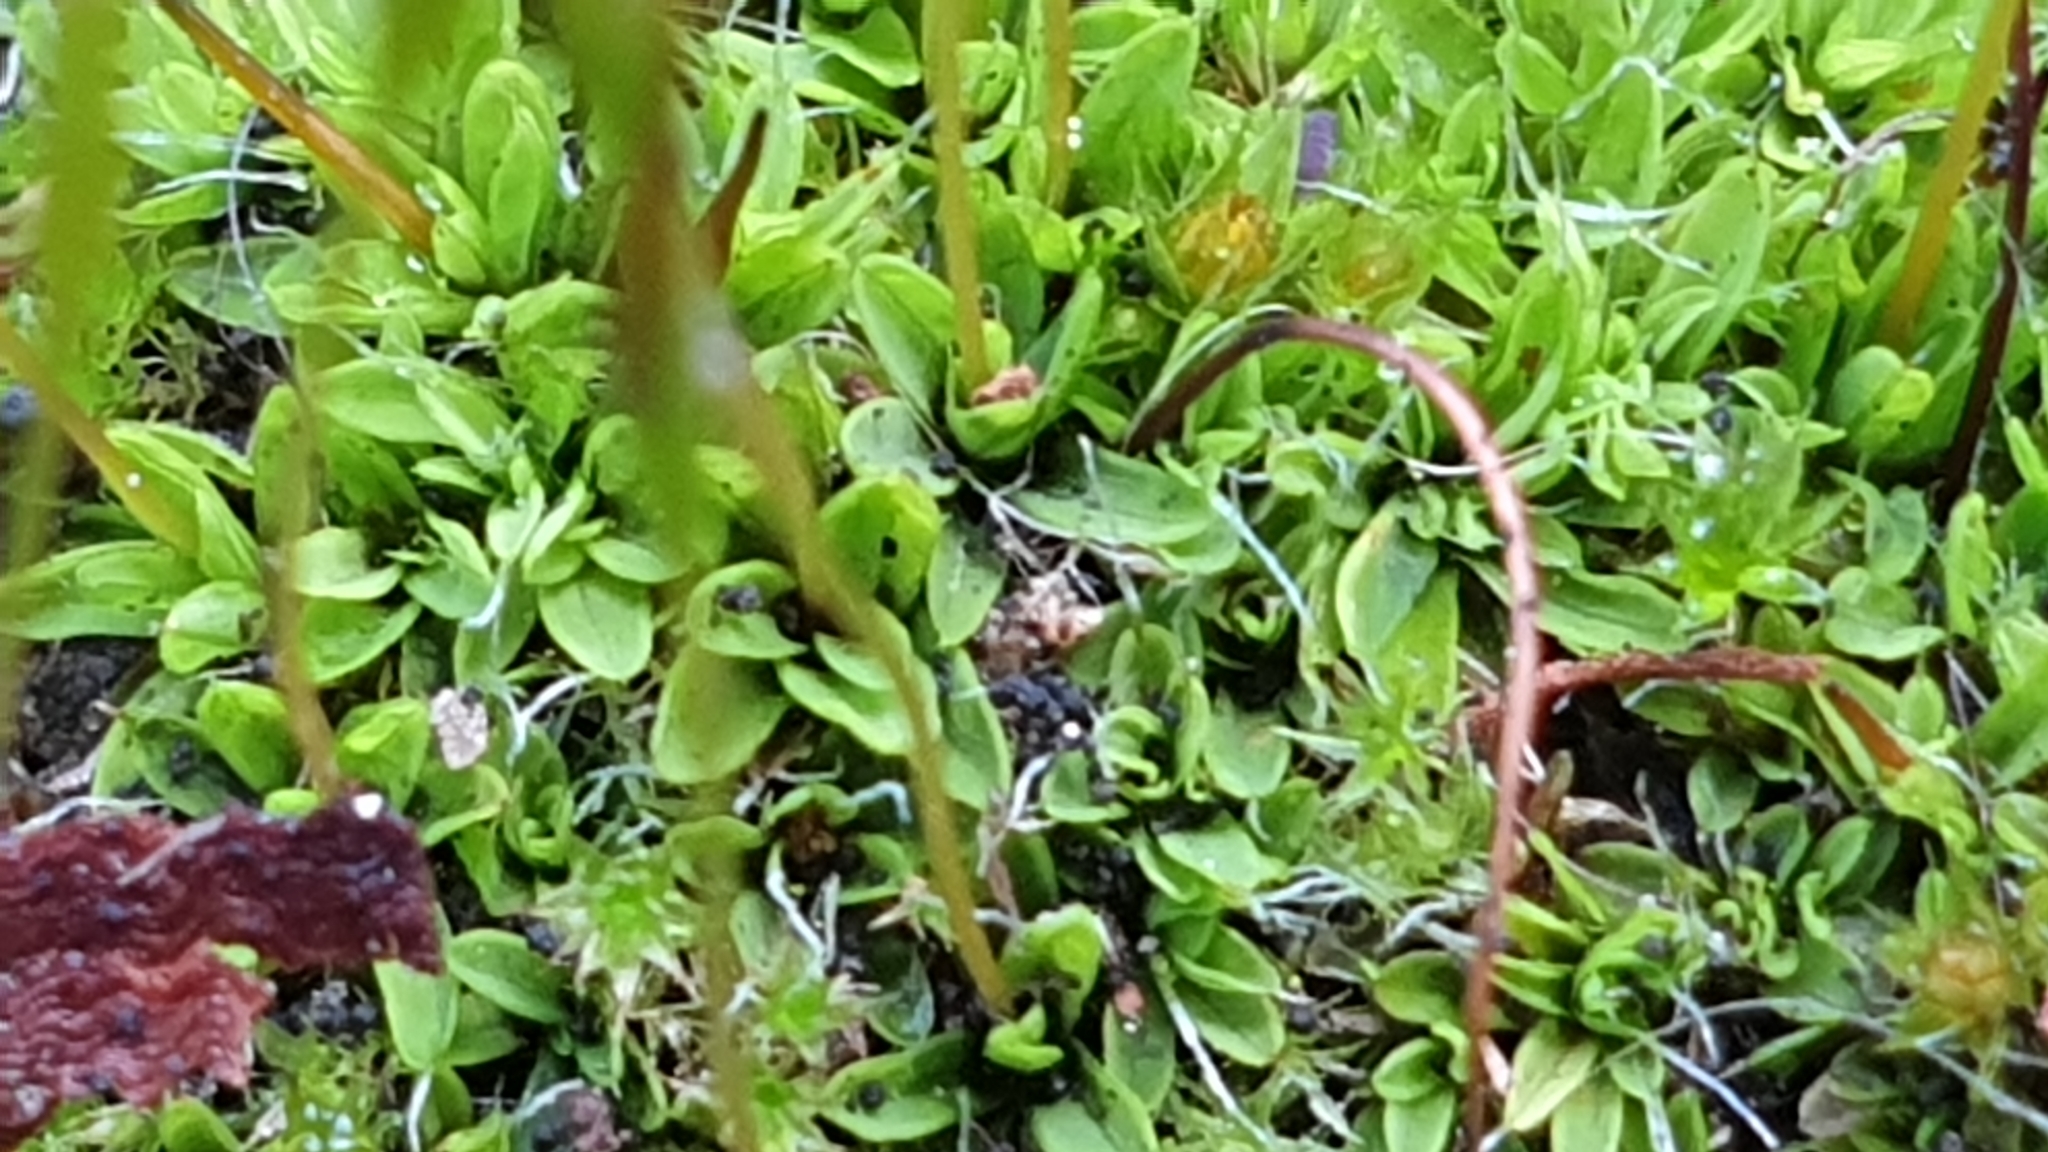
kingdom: Plantae
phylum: Bryophyta
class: Bryopsida
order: Pottiales
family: Pottiaceae
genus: Tortula
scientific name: Tortula muralis
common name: Wall screw-moss
